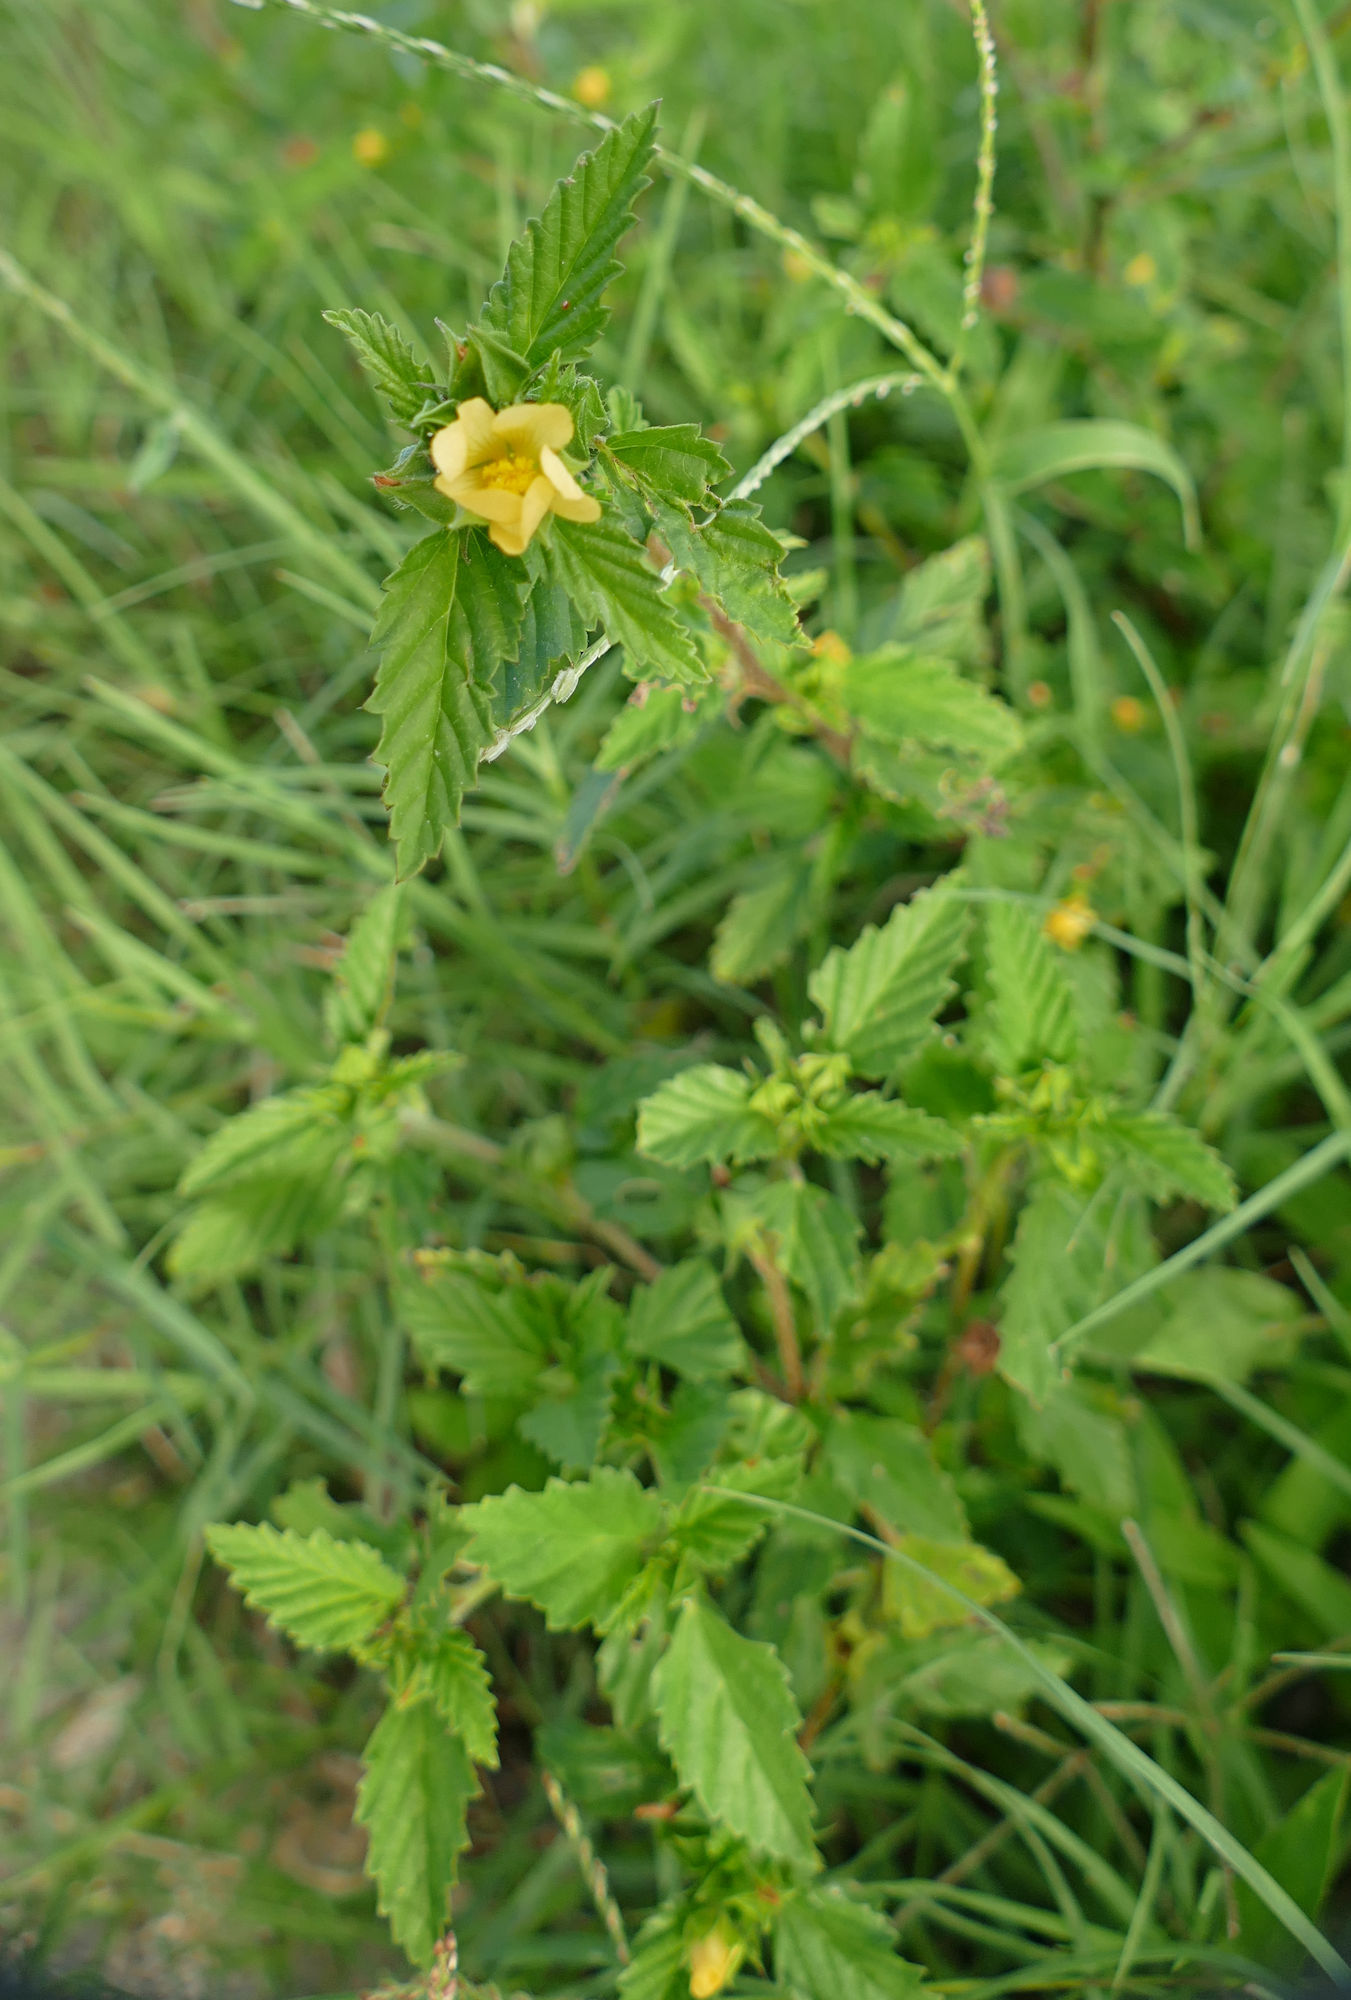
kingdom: Plantae
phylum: Tracheophyta
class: Magnoliopsida
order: Malvales
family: Malvaceae
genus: Malvastrum
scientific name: Malvastrum coromandelianum
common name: Threelobe false mallow
